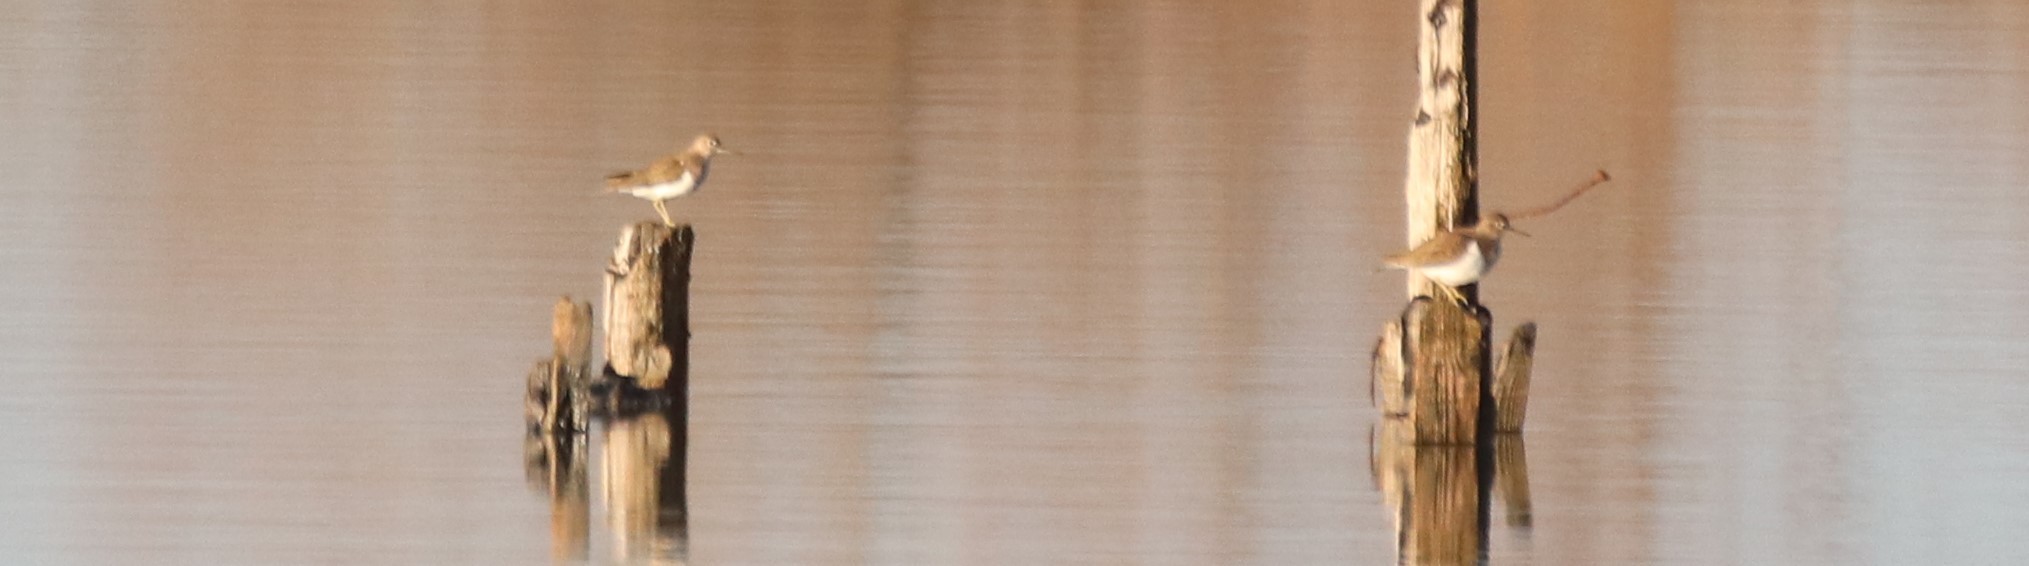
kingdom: Animalia
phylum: Chordata
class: Aves
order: Charadriiformes
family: Scolopacidae
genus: Actitis
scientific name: Actitis hypoleucos
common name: Common sandpiper
